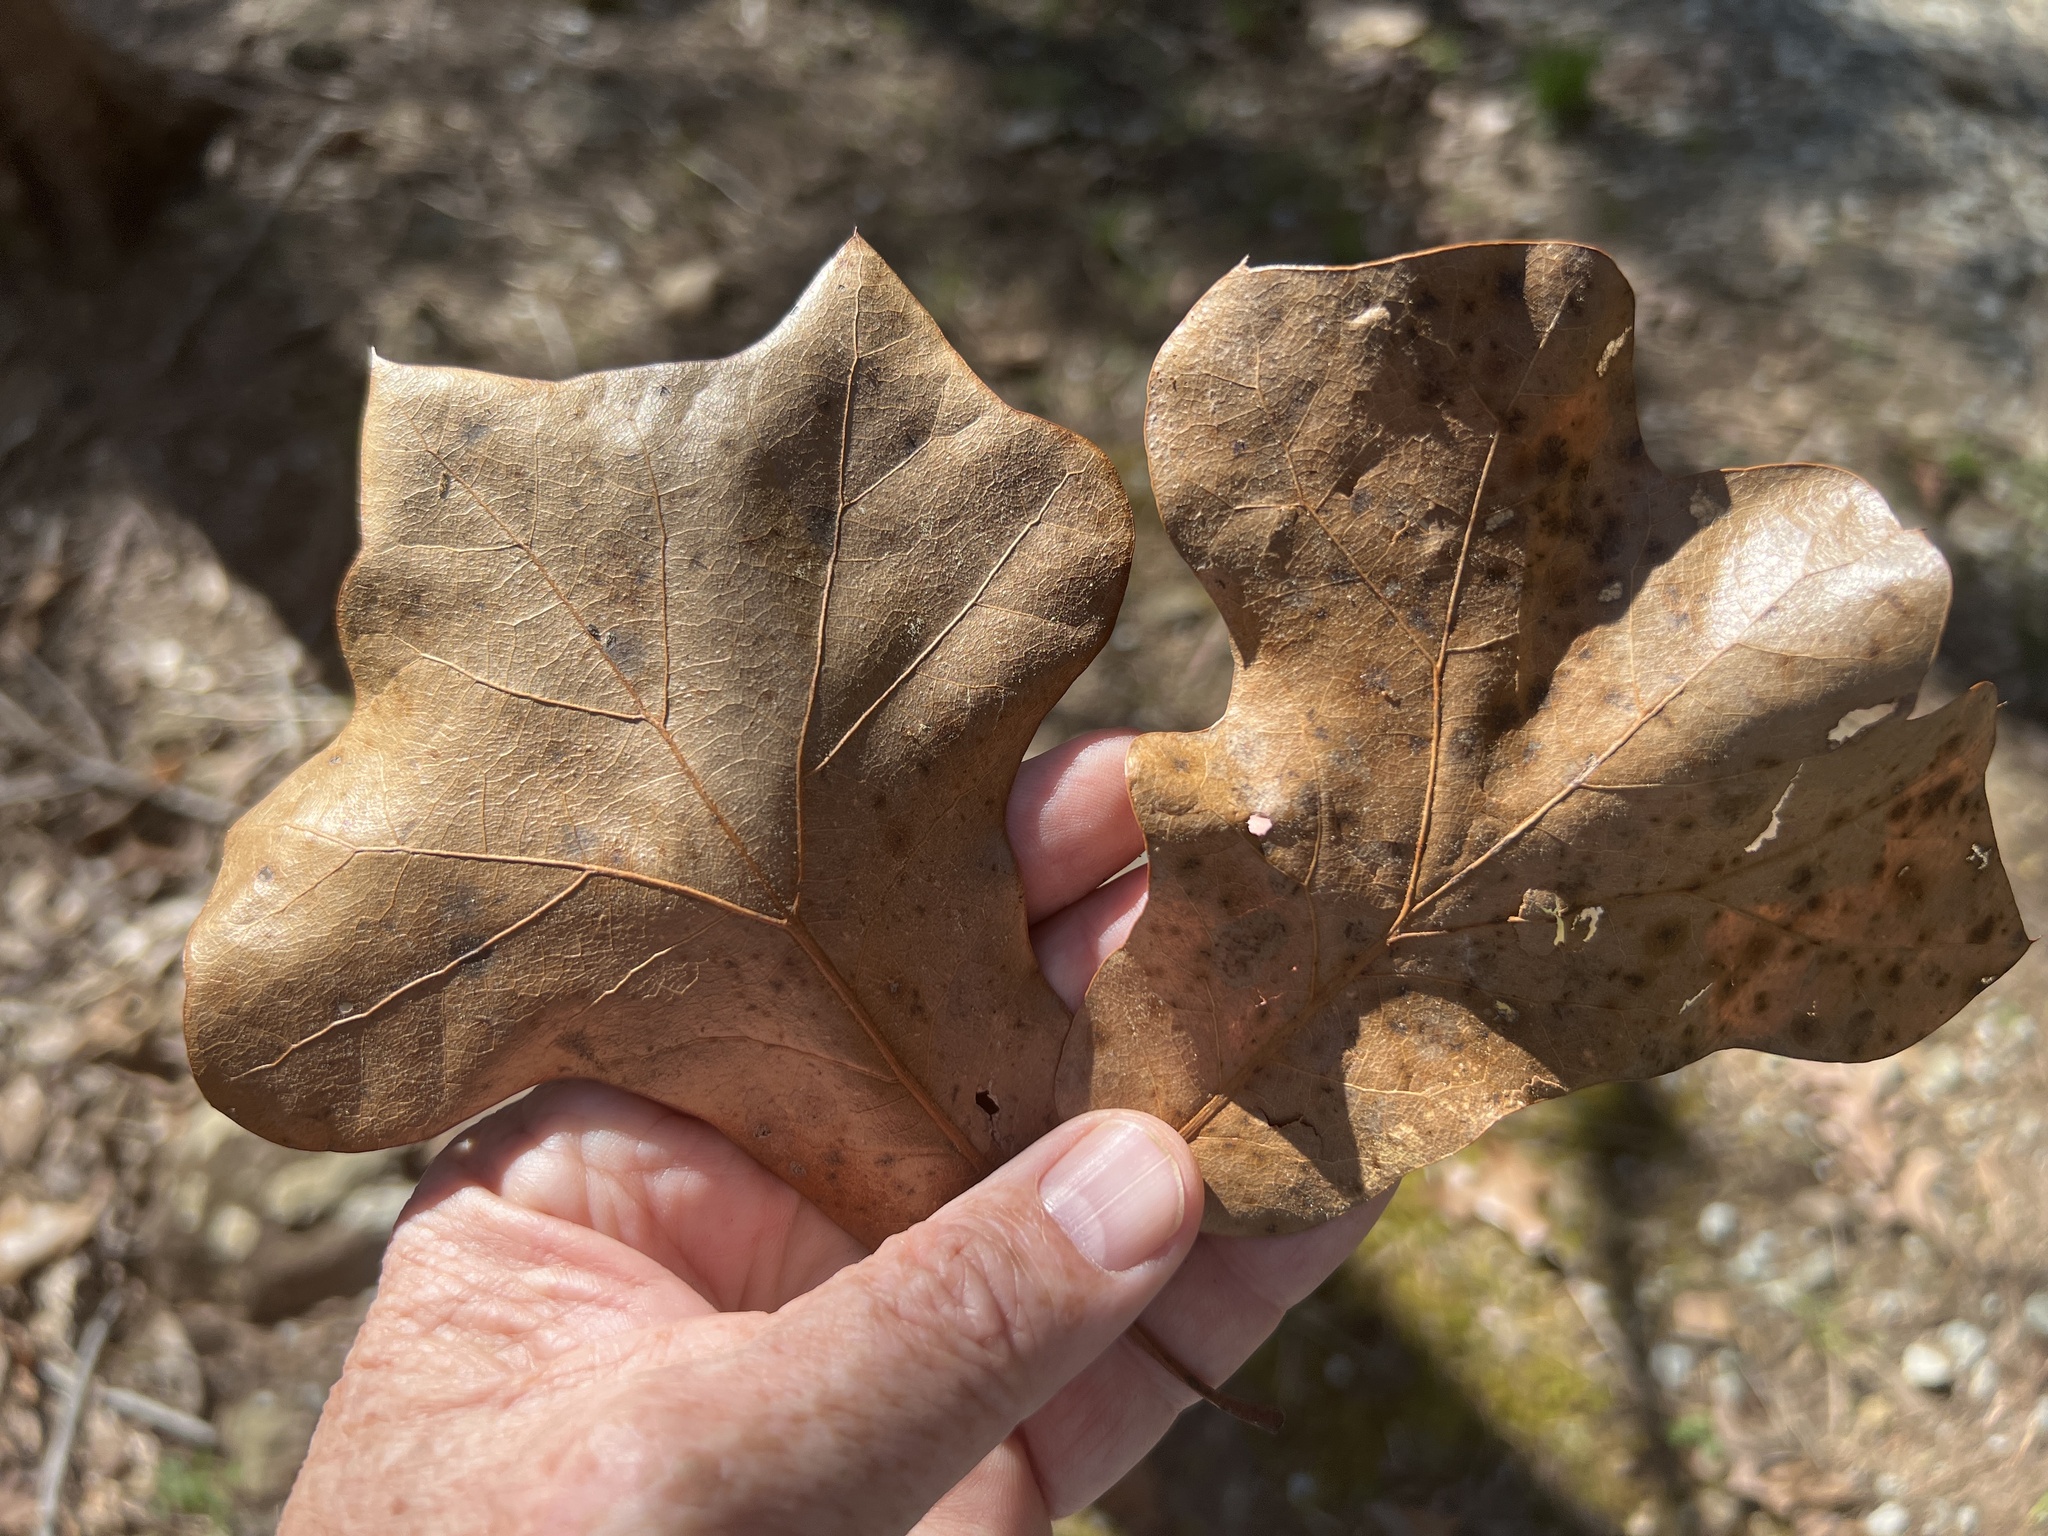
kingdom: Plantae
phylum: Tracheophyta
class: Magnoliopsida
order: Fagales
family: Fagaceae
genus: Quercus
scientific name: Quercus marilandica
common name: Blackjack oak
